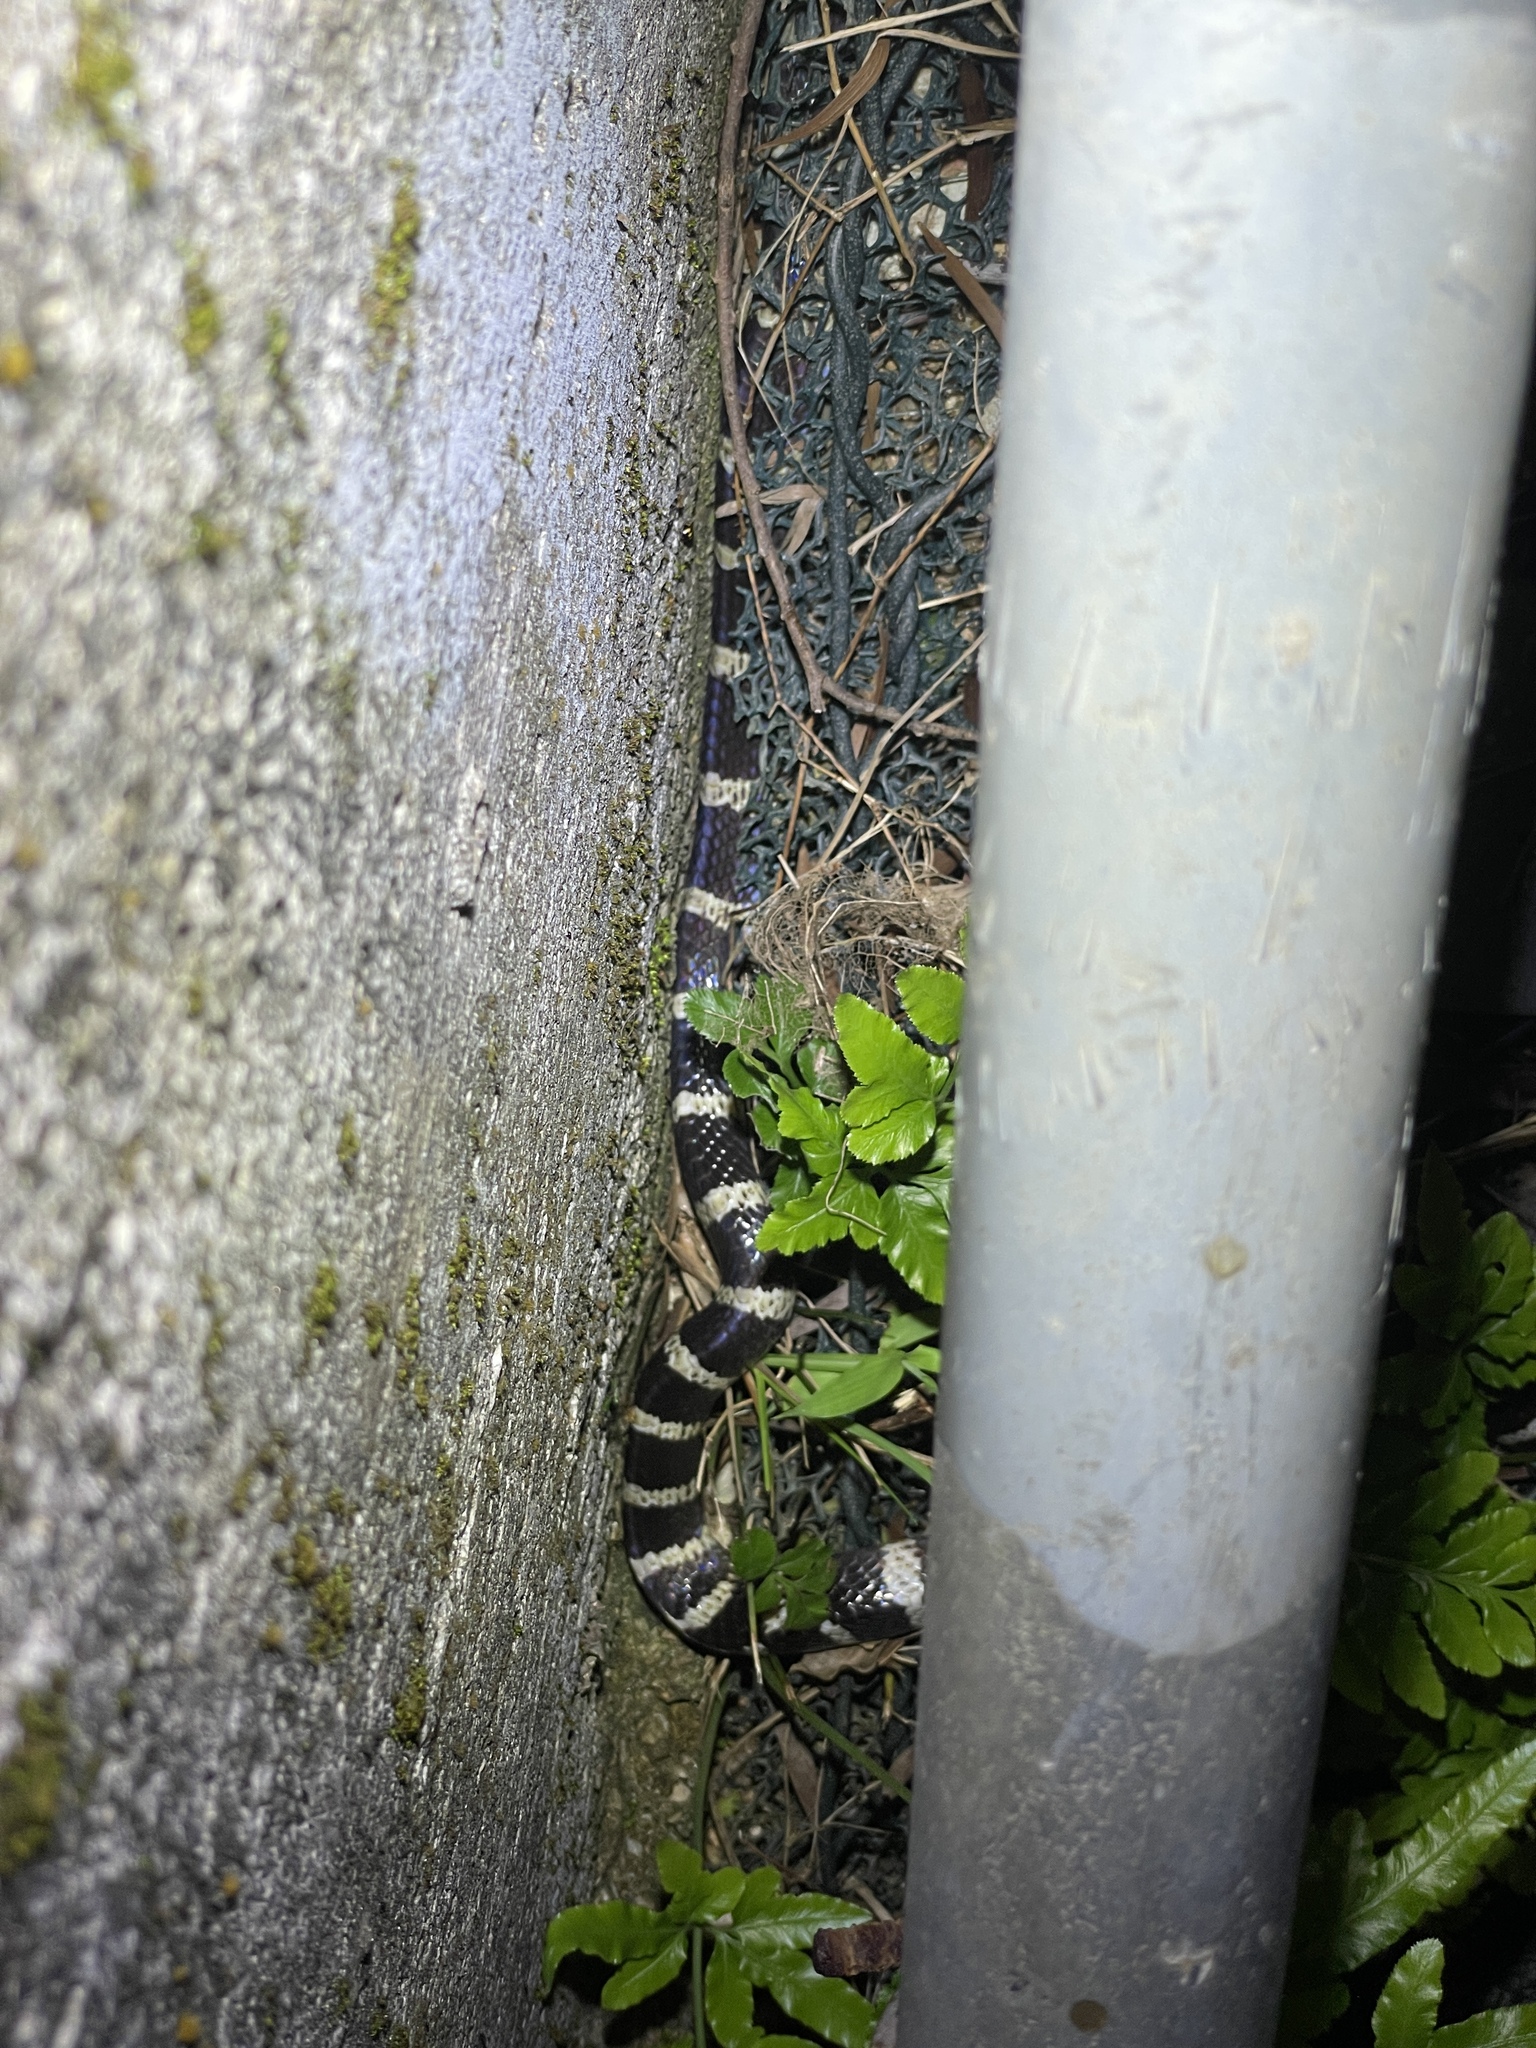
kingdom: Animalia
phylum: Chordata
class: Squamata
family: Elapidae
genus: Bungarus
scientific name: Bungarus multicinctus
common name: Many-banded krait
